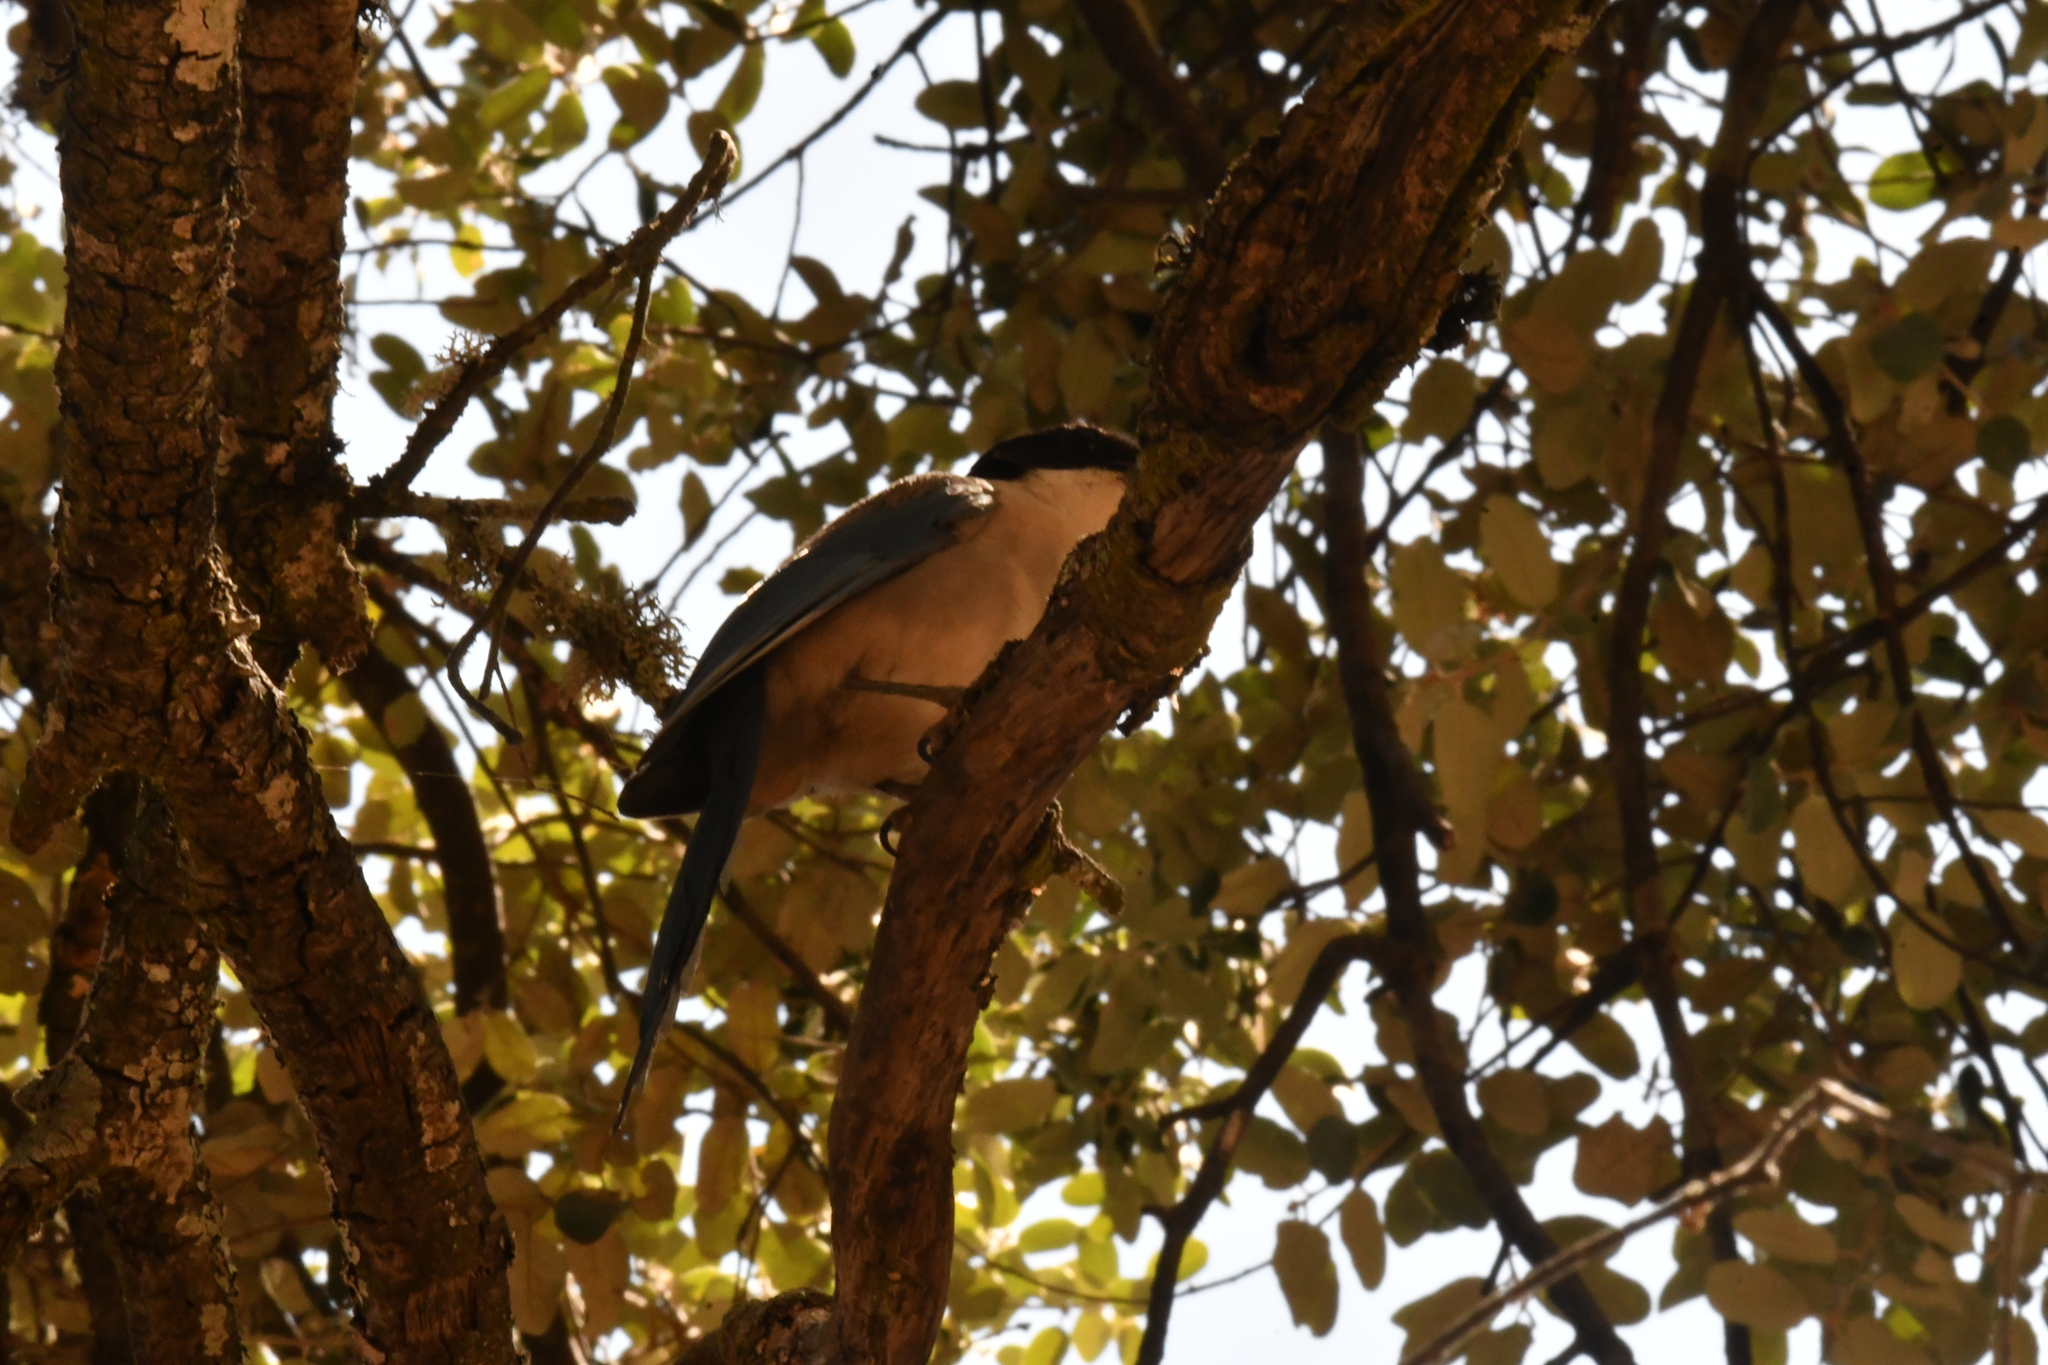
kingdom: Animalia
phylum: Chordata
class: Aves
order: Passeriformes
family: Corvidae
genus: Cyanopica
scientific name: Cyanopica cooki
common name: Iberian magpie
